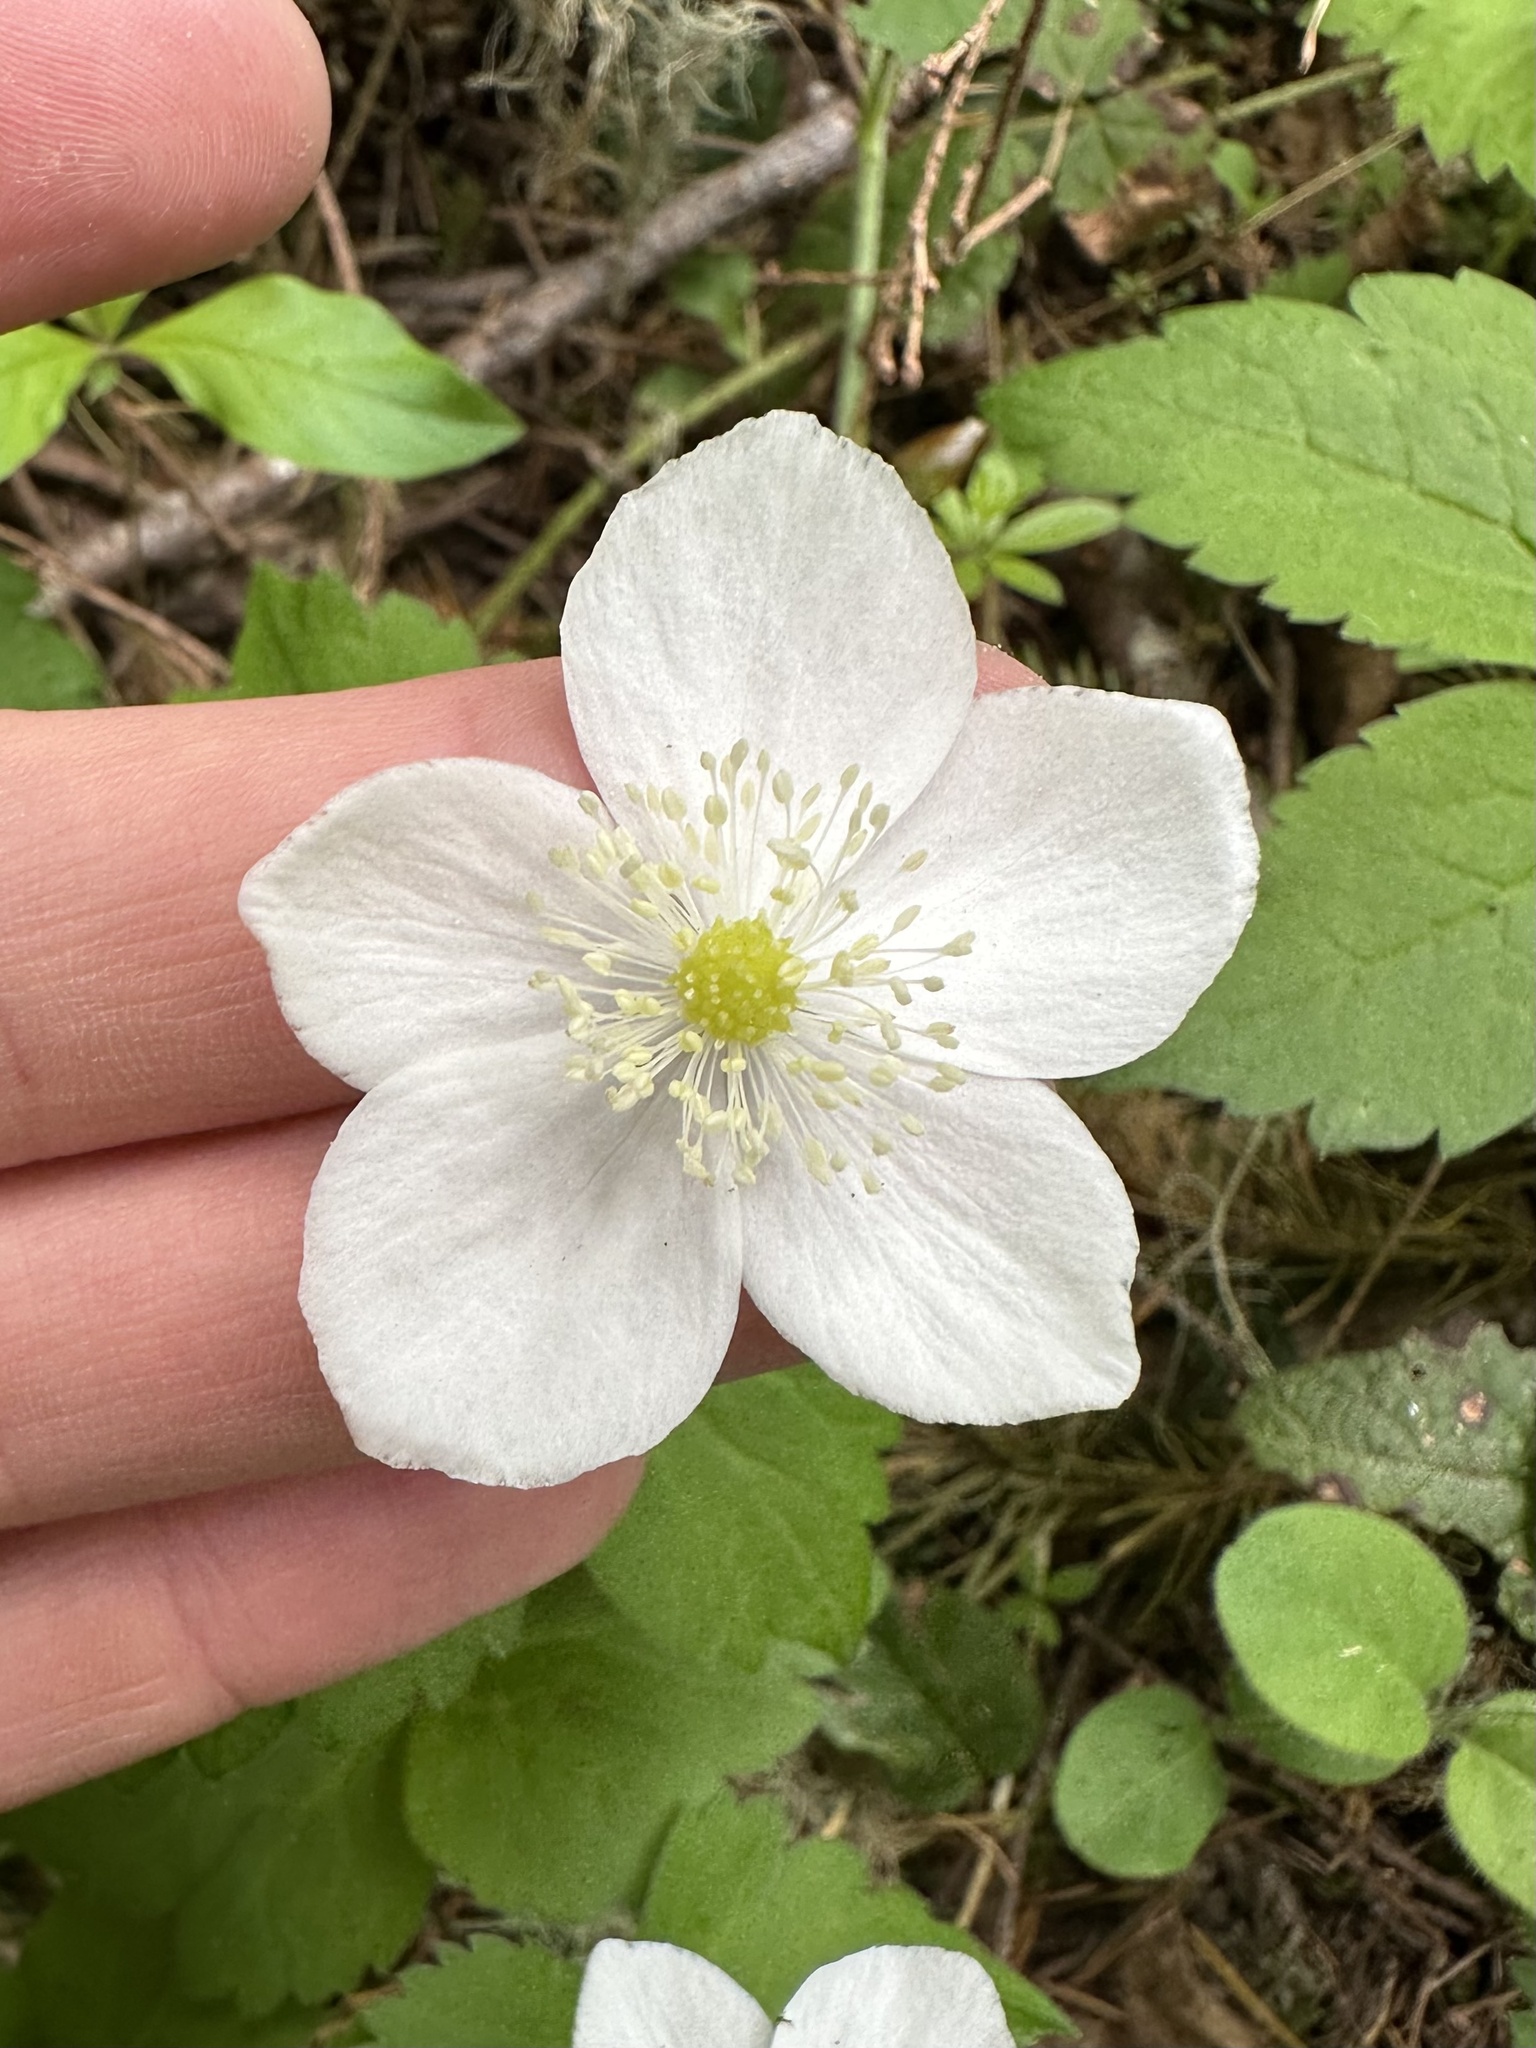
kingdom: Plantae
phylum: Tracheophyta
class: Magnoliopsida
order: Ranunculales
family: Ranunculaceae
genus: Anemonastrum
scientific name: Anemonastrum deltoideum
